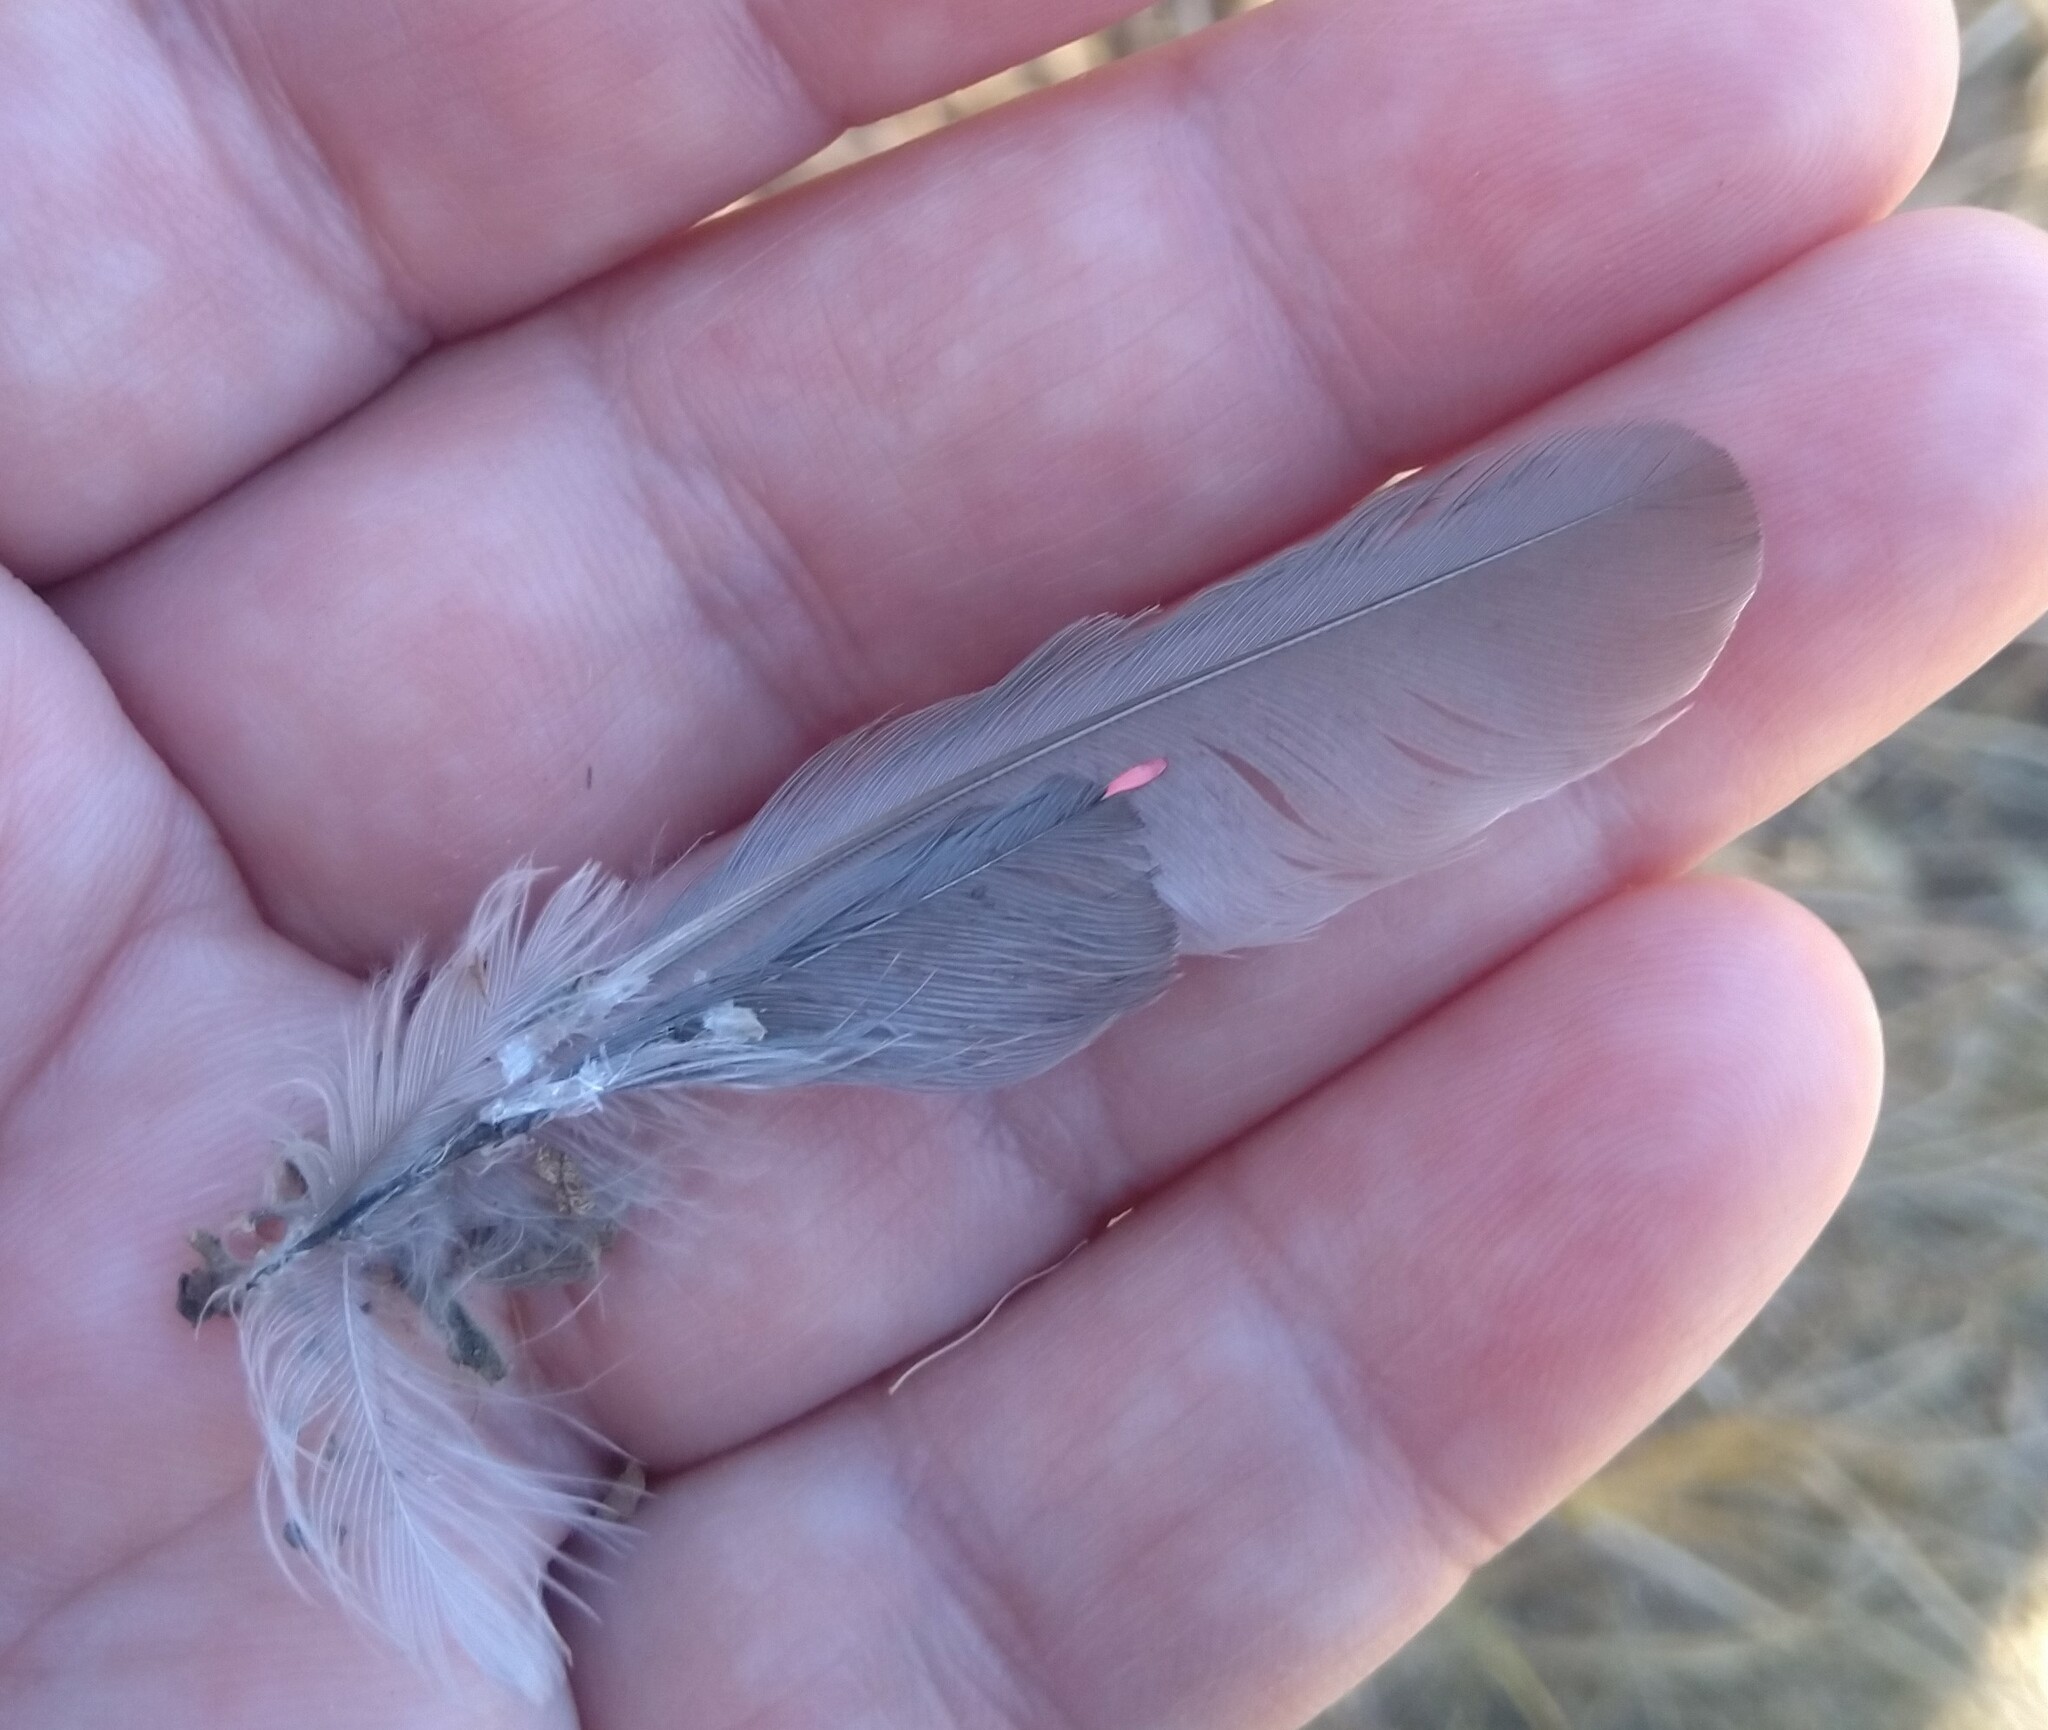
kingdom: Animalia
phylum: Chordata
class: Aves
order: Passeriformes
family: Bombycillidae
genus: Bombycilla
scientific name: Bombycilla cedrorum
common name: Cedar waxwing
